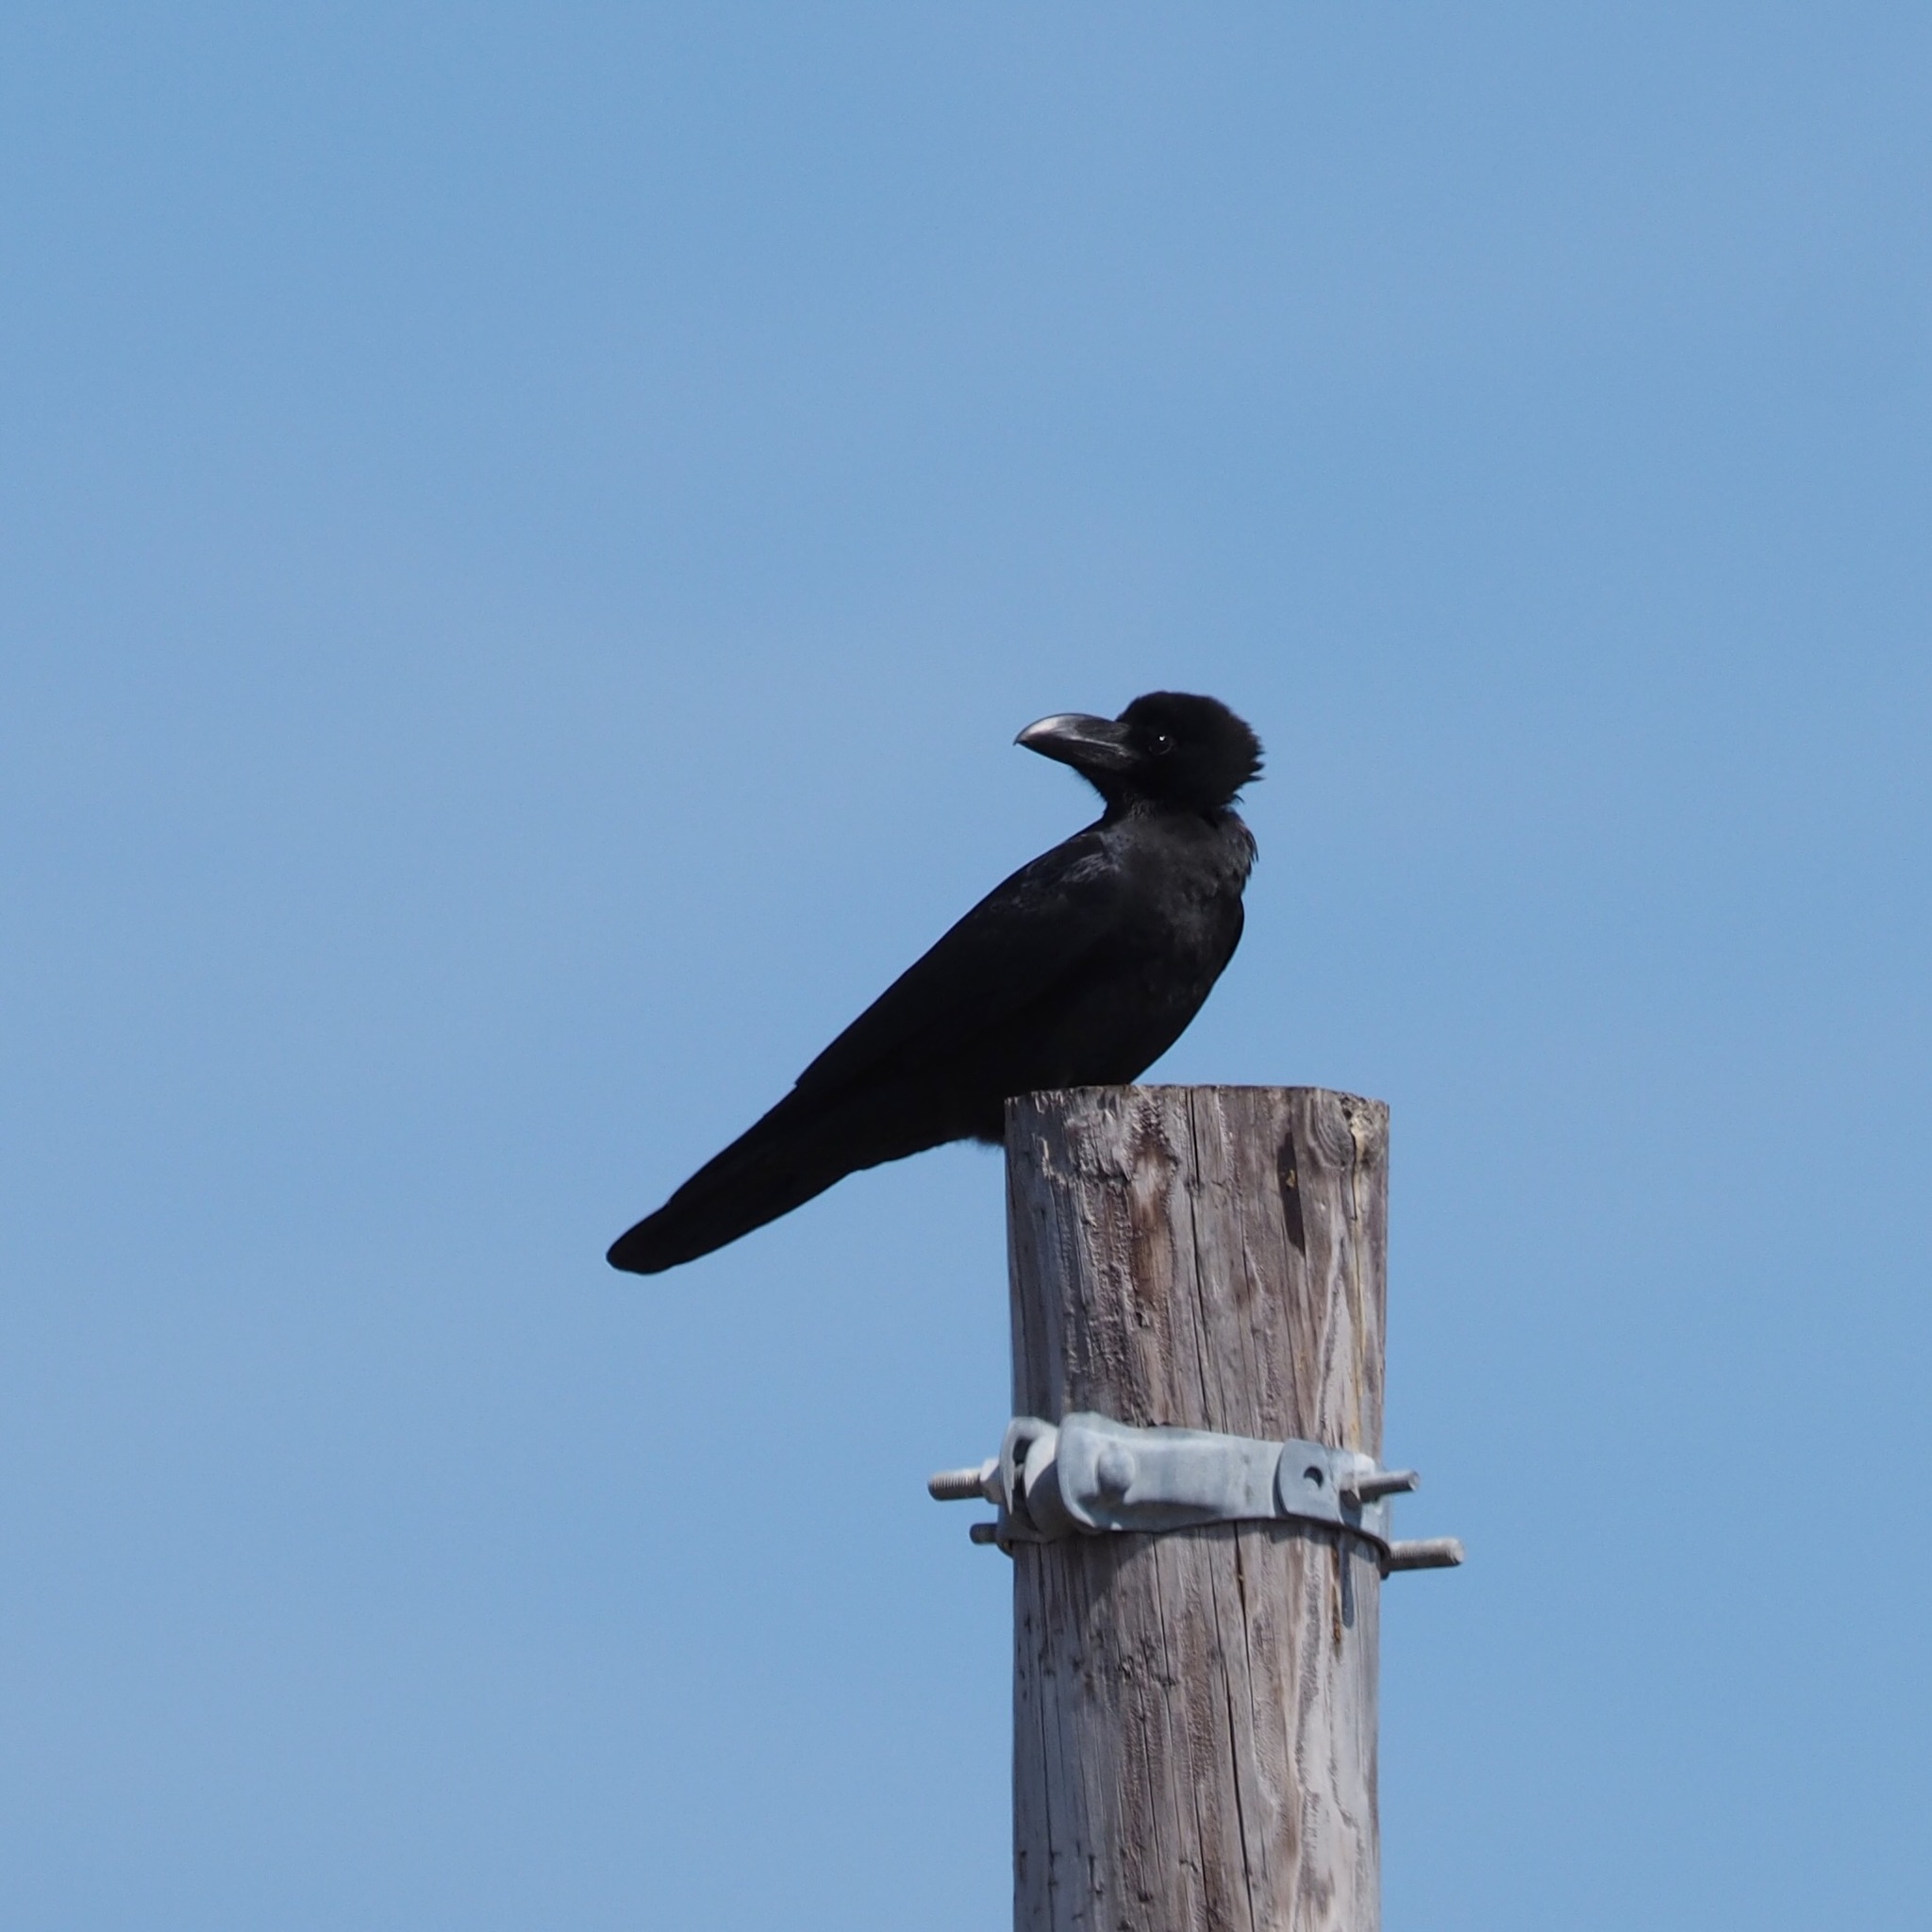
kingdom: Animalia
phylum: Chordata
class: Aves
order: Passeriformes
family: Corvidae
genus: Corvus
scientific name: Corvus macrorhynchos
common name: Large-billed crow
